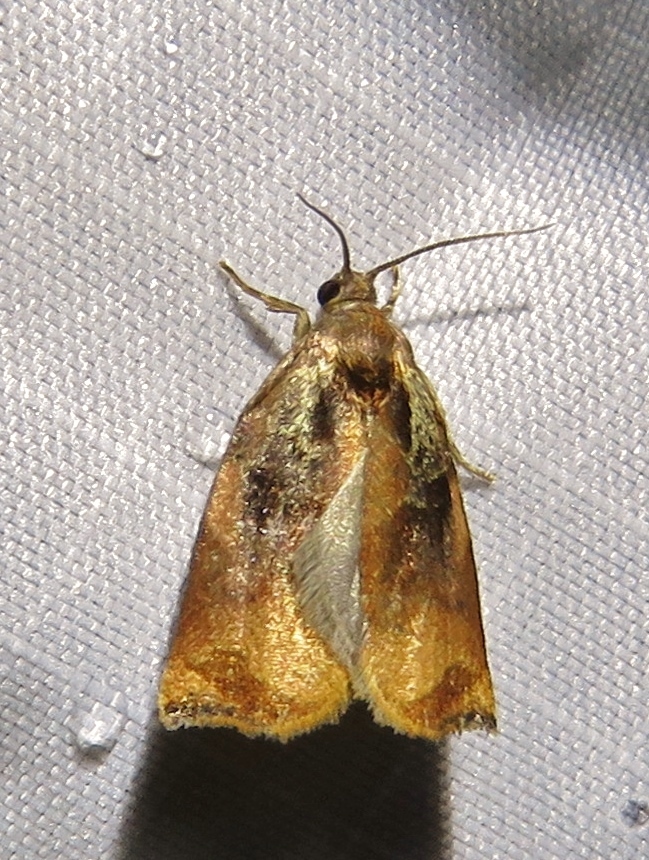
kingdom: Animalia
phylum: Arthropoda
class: Insecta
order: Lepidoptera
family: Tortricidae
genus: Archips
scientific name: Archips podana
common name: Large fruit-tree tortrix
